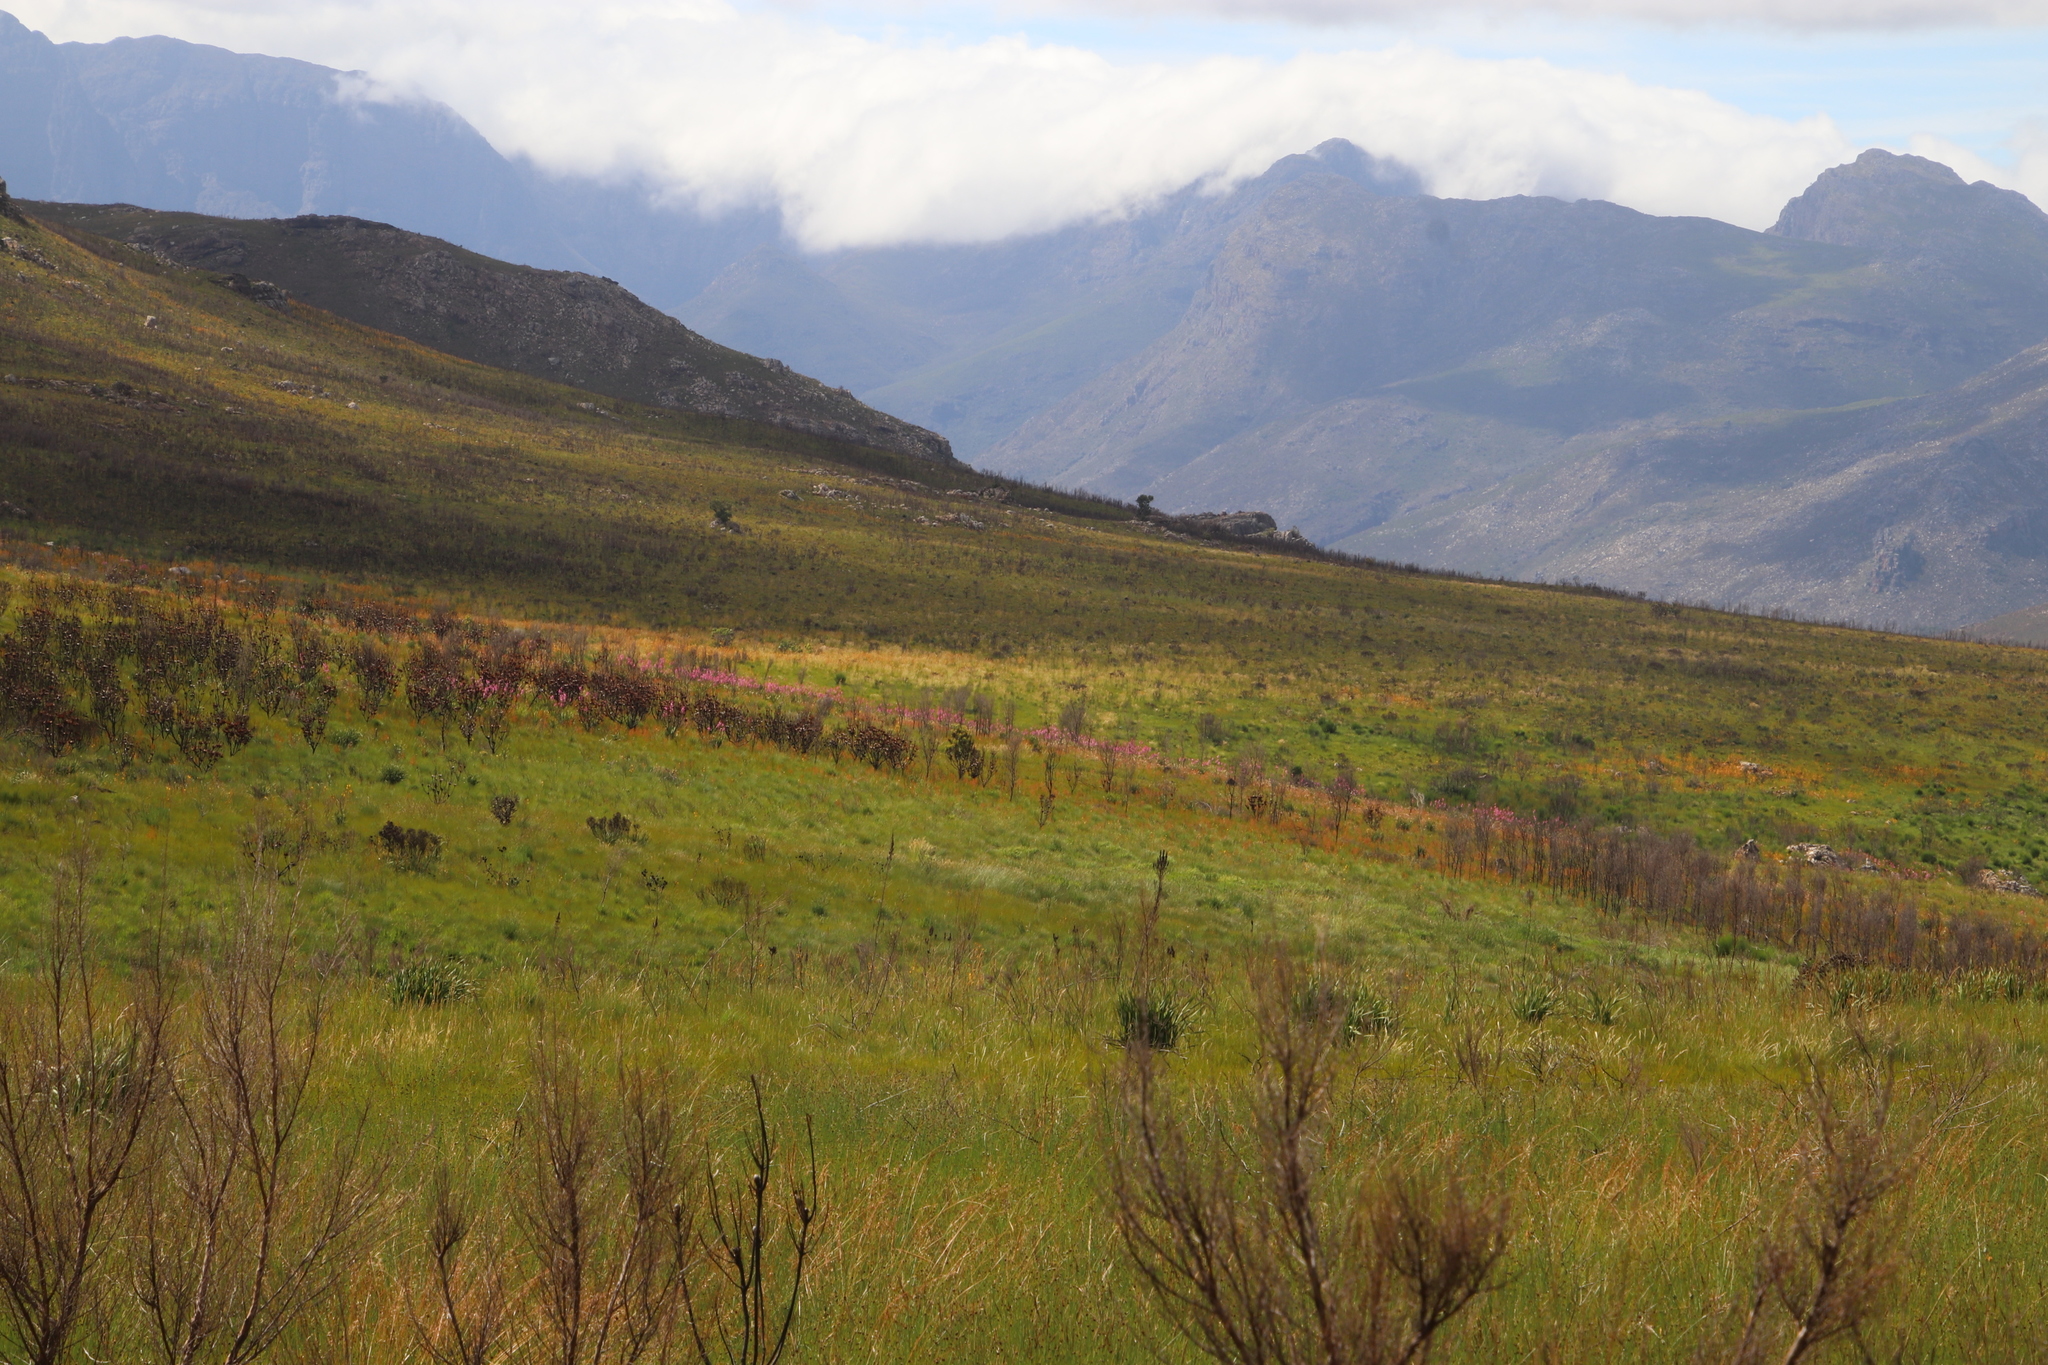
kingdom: Plantae
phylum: Tracheophyta
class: Liliopsida
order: Commelinales
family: Haemodoraceae
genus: Wachendorfia
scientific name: Wachendorfia paniculata
